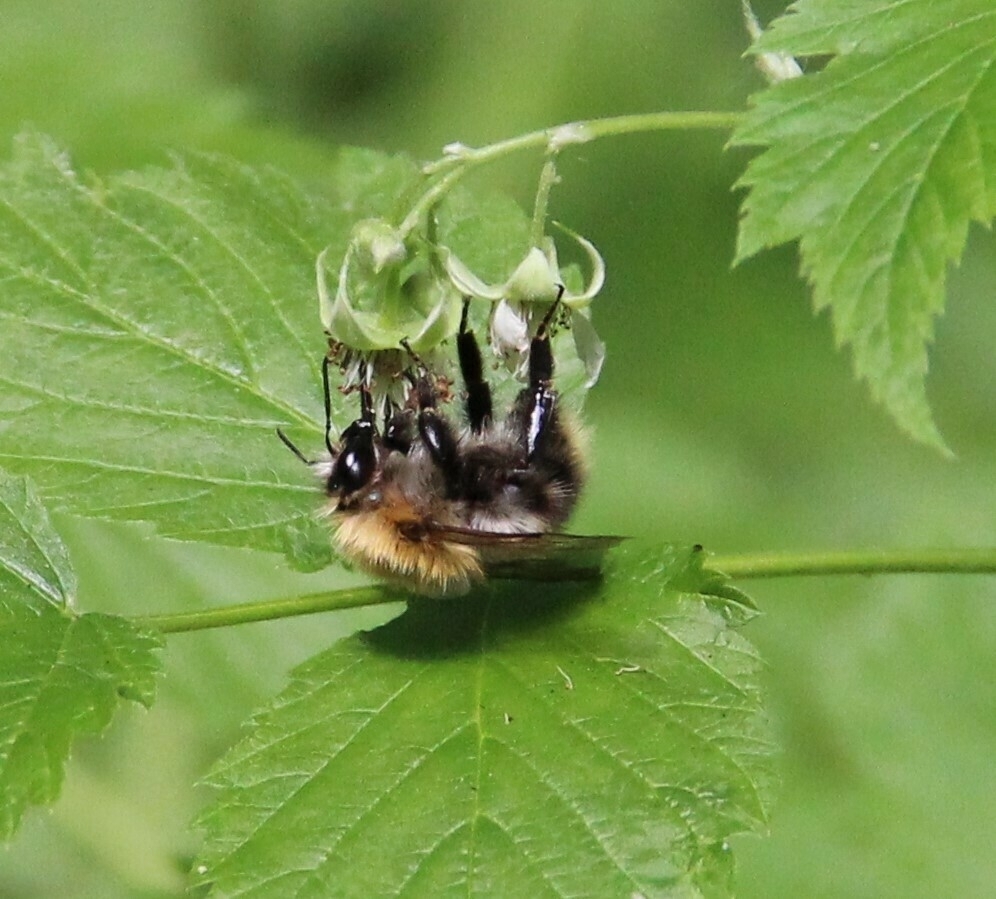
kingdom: Animalia
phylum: Arthropoda
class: Insecta
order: Hymenoptera
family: Apidae
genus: Bombus
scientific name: Bombus pascuorum
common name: Common carder bee
